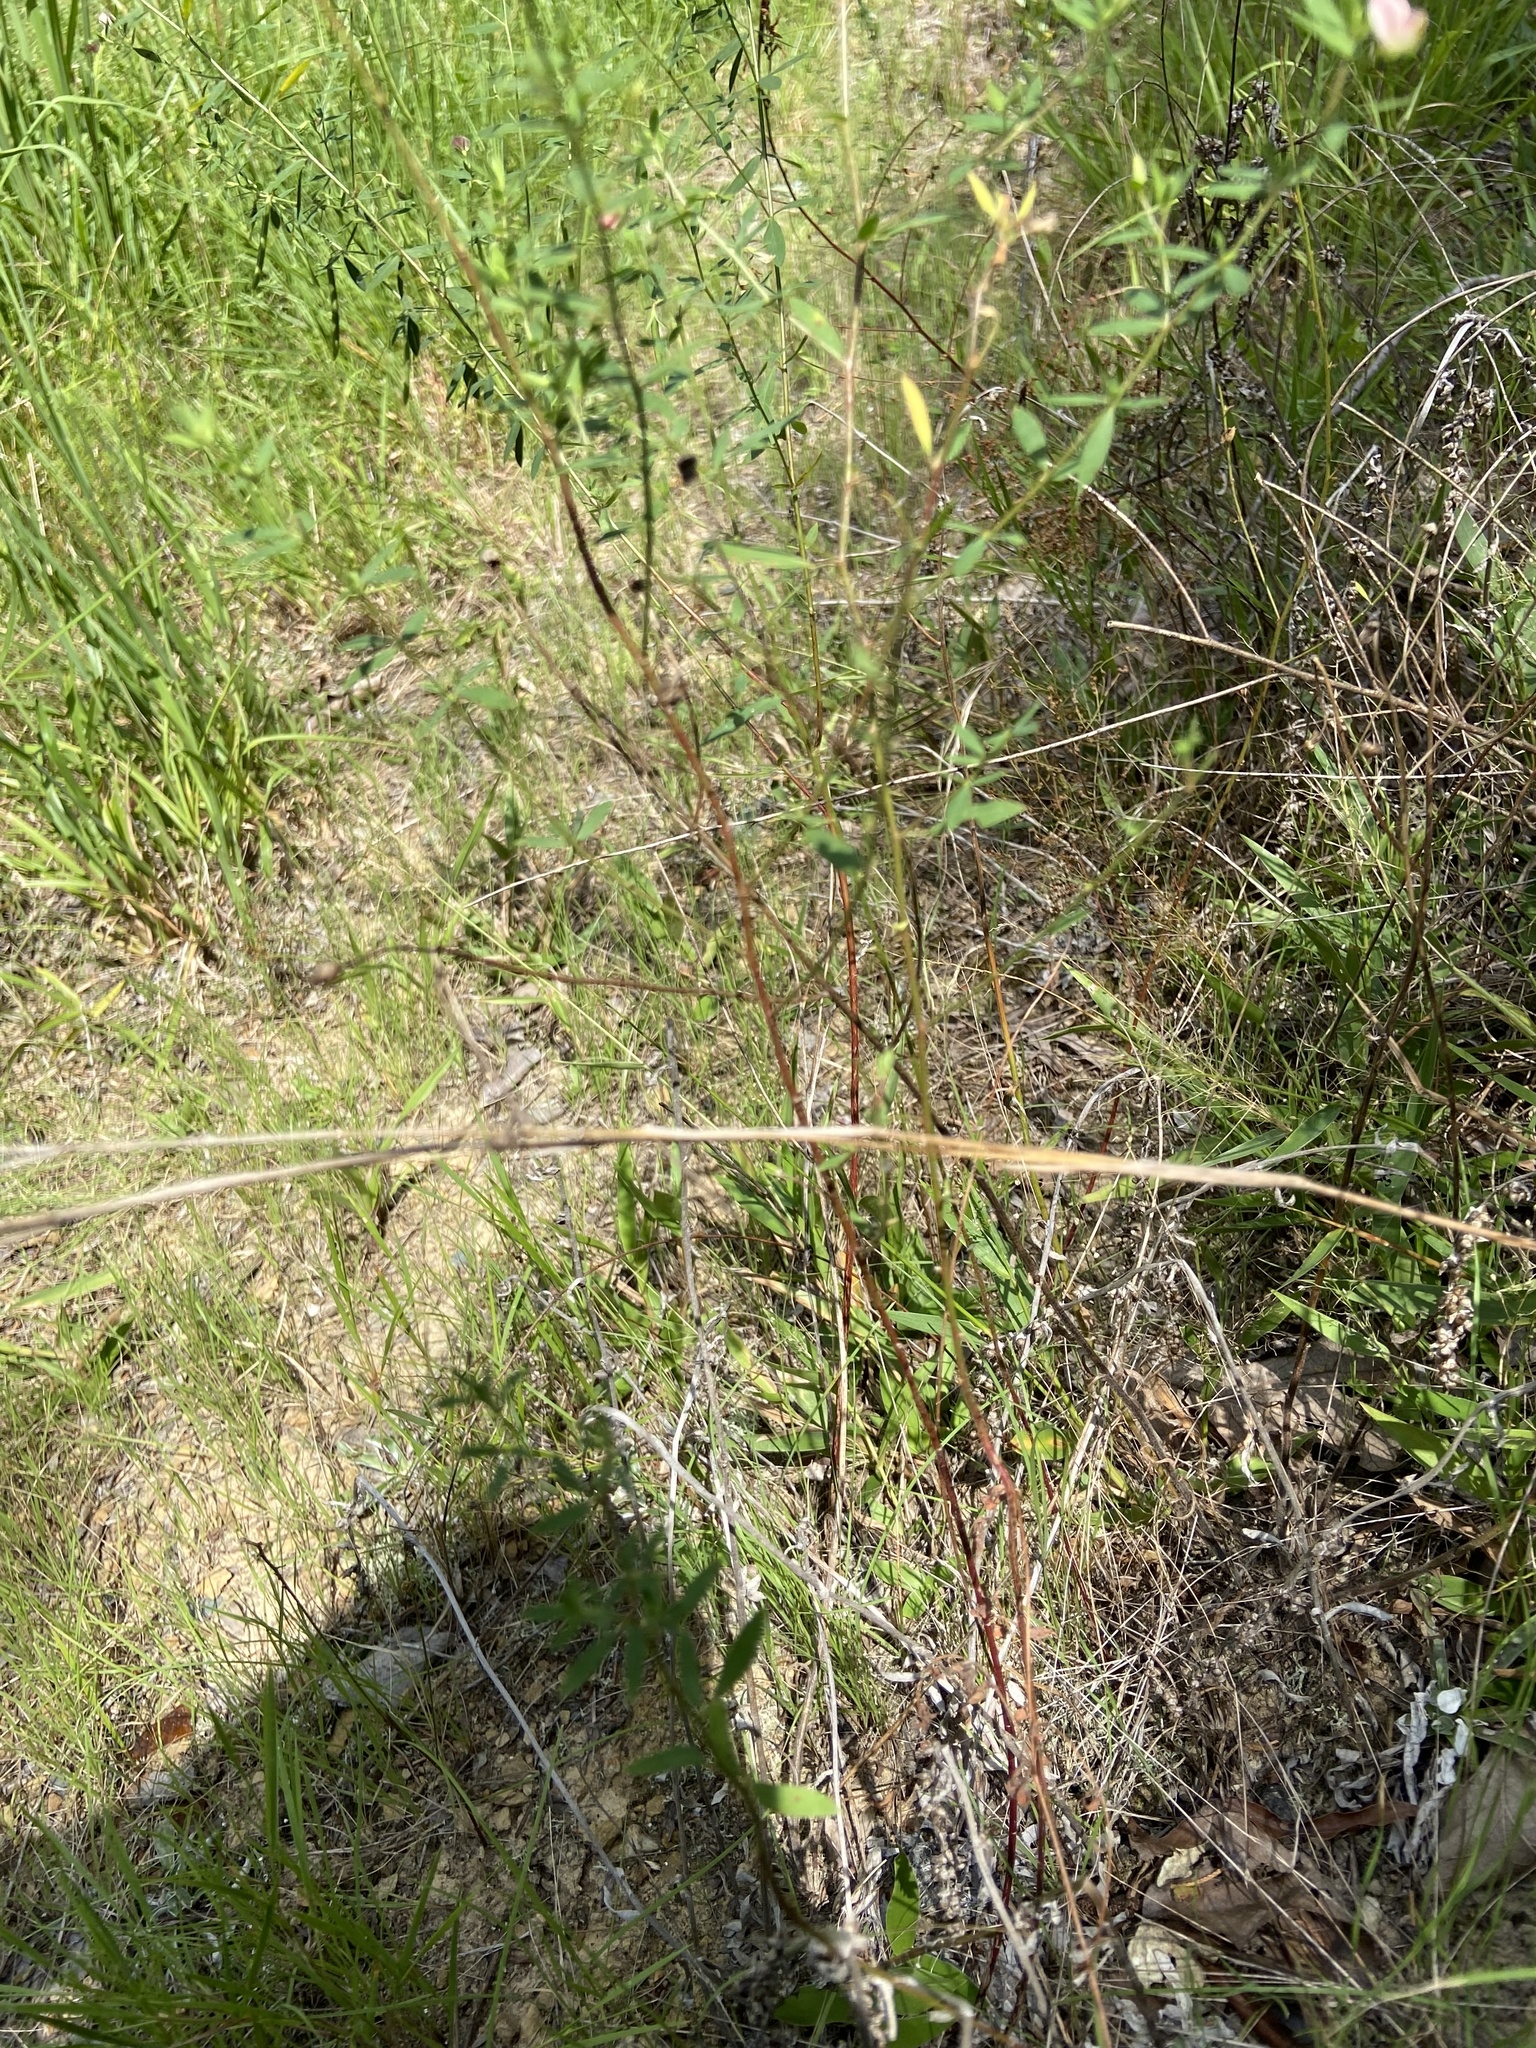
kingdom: Plantae
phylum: Tracheophyta
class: Magnoliopsida
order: Fabales
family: Fabaceae
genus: Acmispon
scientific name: Acmispon americanus
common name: American bird's-foot trefoil
